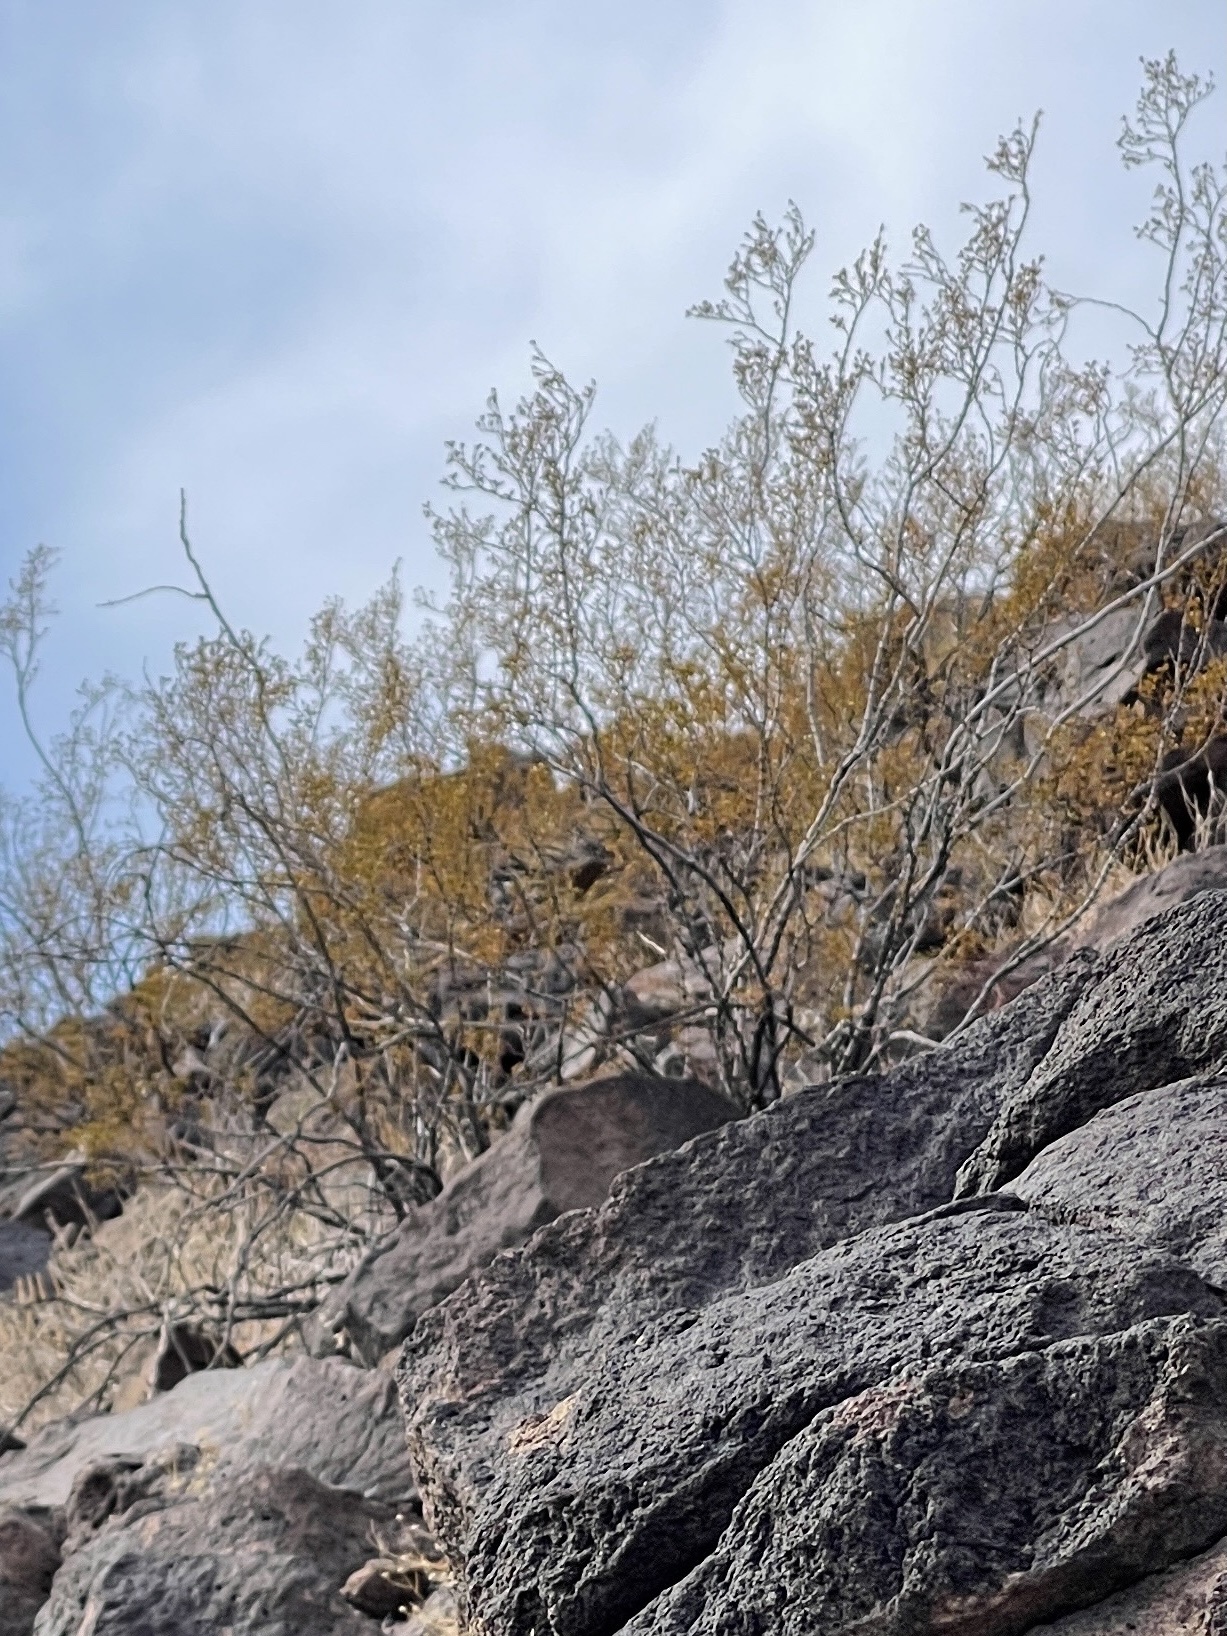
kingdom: Plantae
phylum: Tracheophyta
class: Magnoliopsida
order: Zygophyllales
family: Zygophyllaceae
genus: Larrea
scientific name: Larrea tridentata
